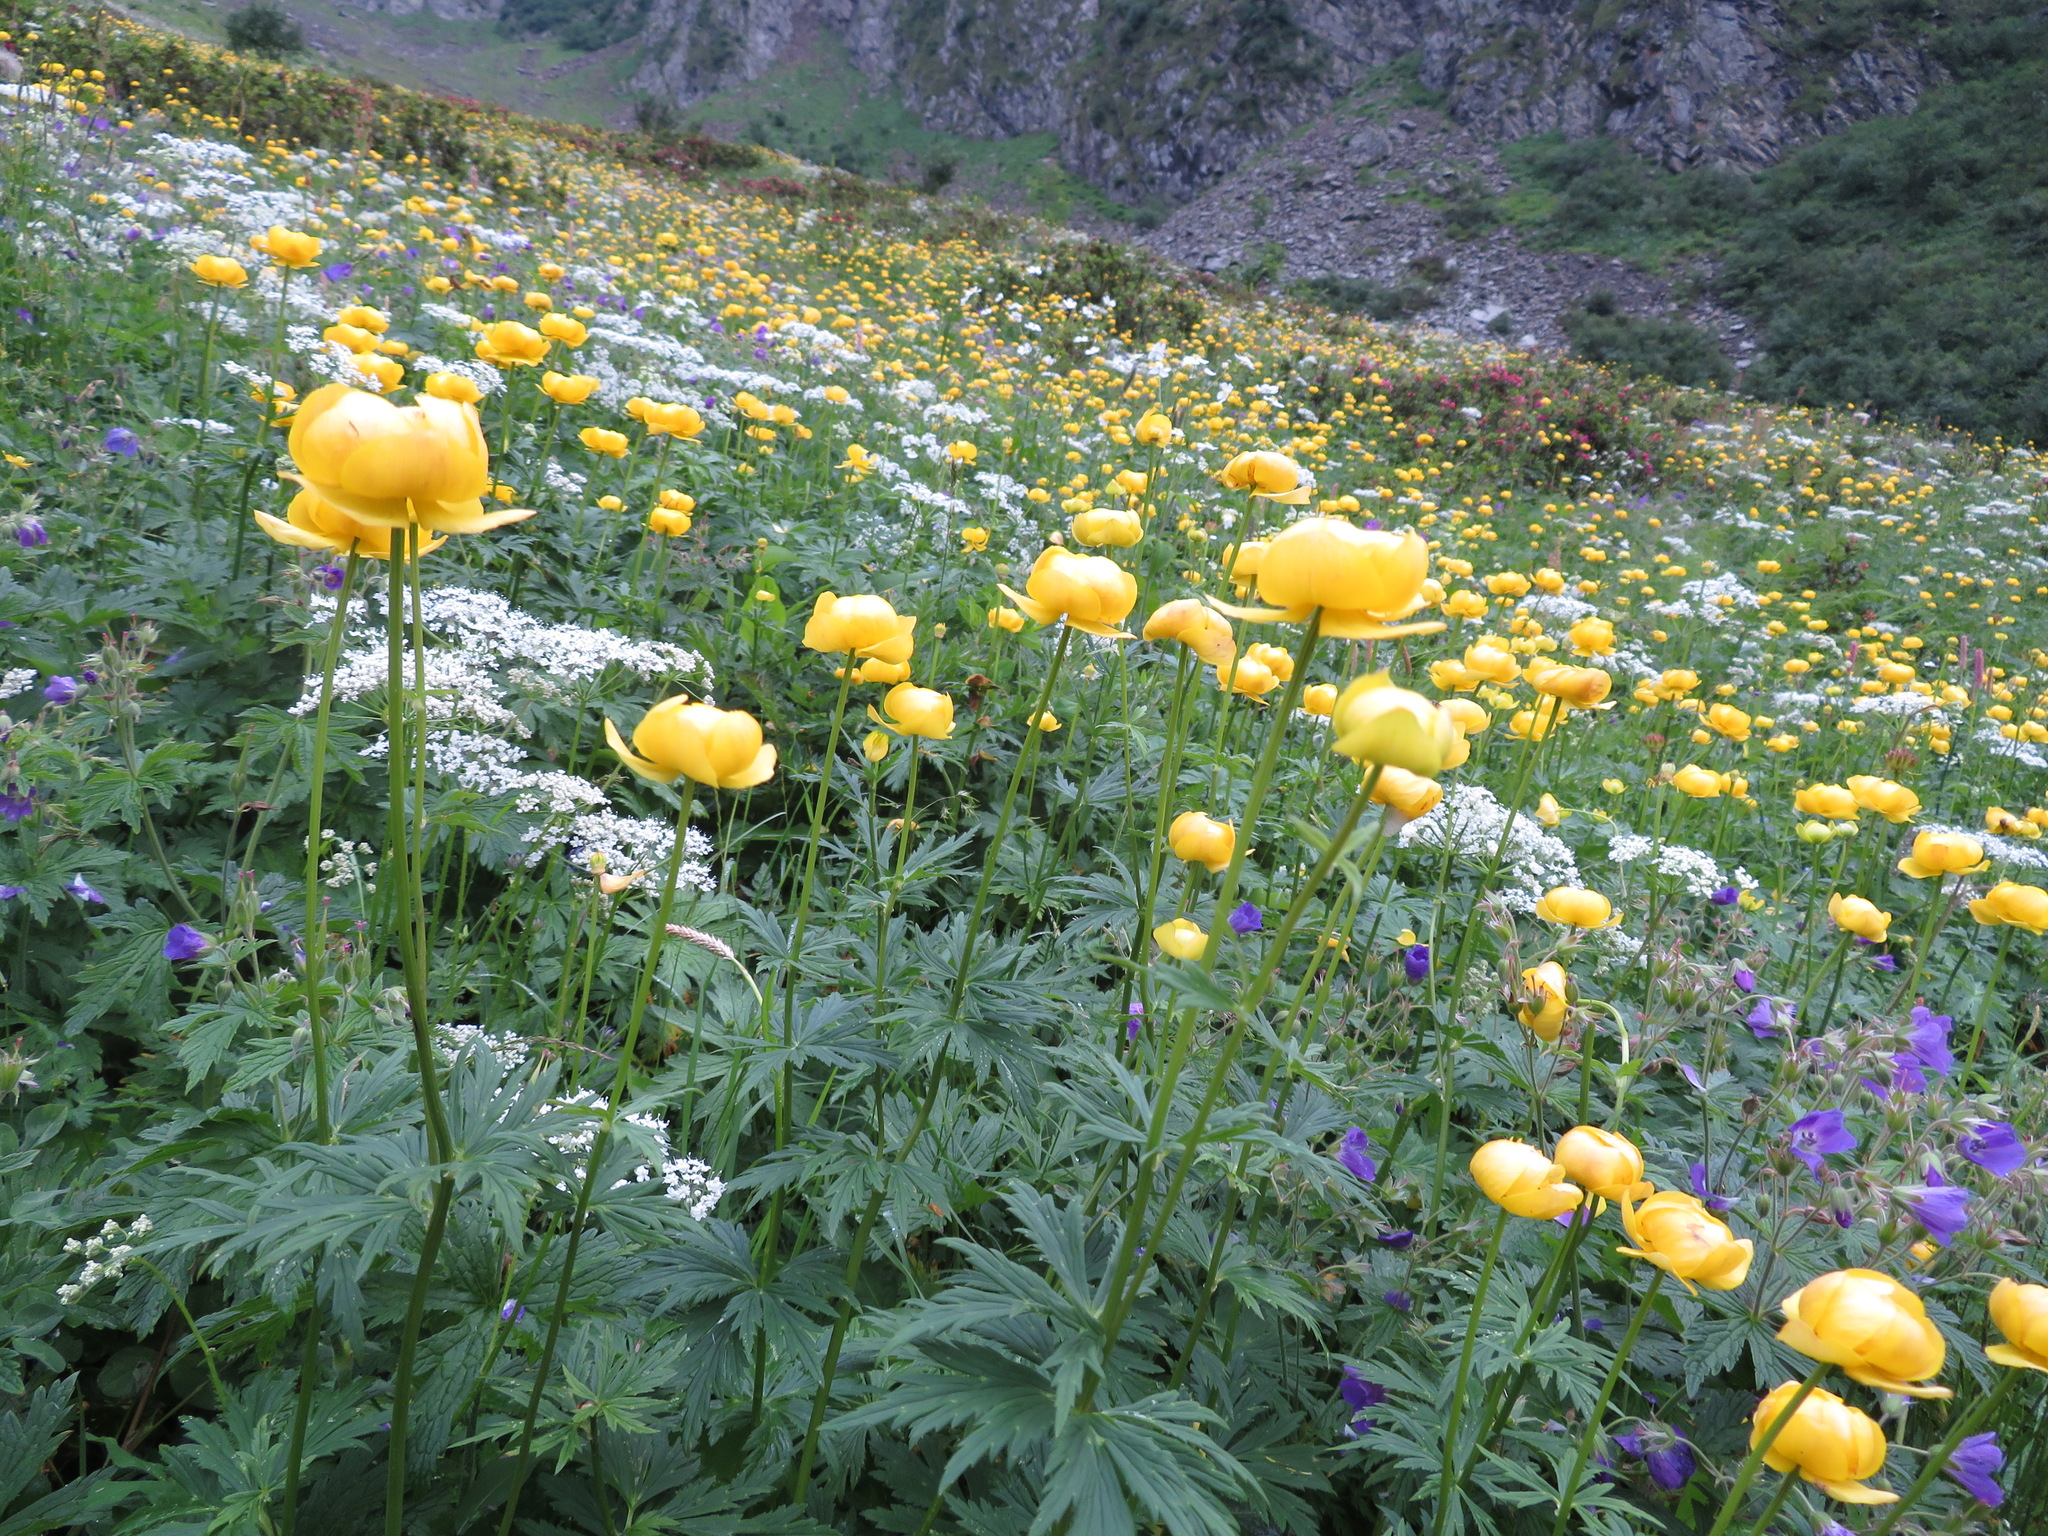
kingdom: Plantae
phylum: Tracheophyta
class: Magnoliopsida
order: Ranunculales
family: Ranunculaceae
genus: Trollius
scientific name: Trollius europaeus
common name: European globeflower
